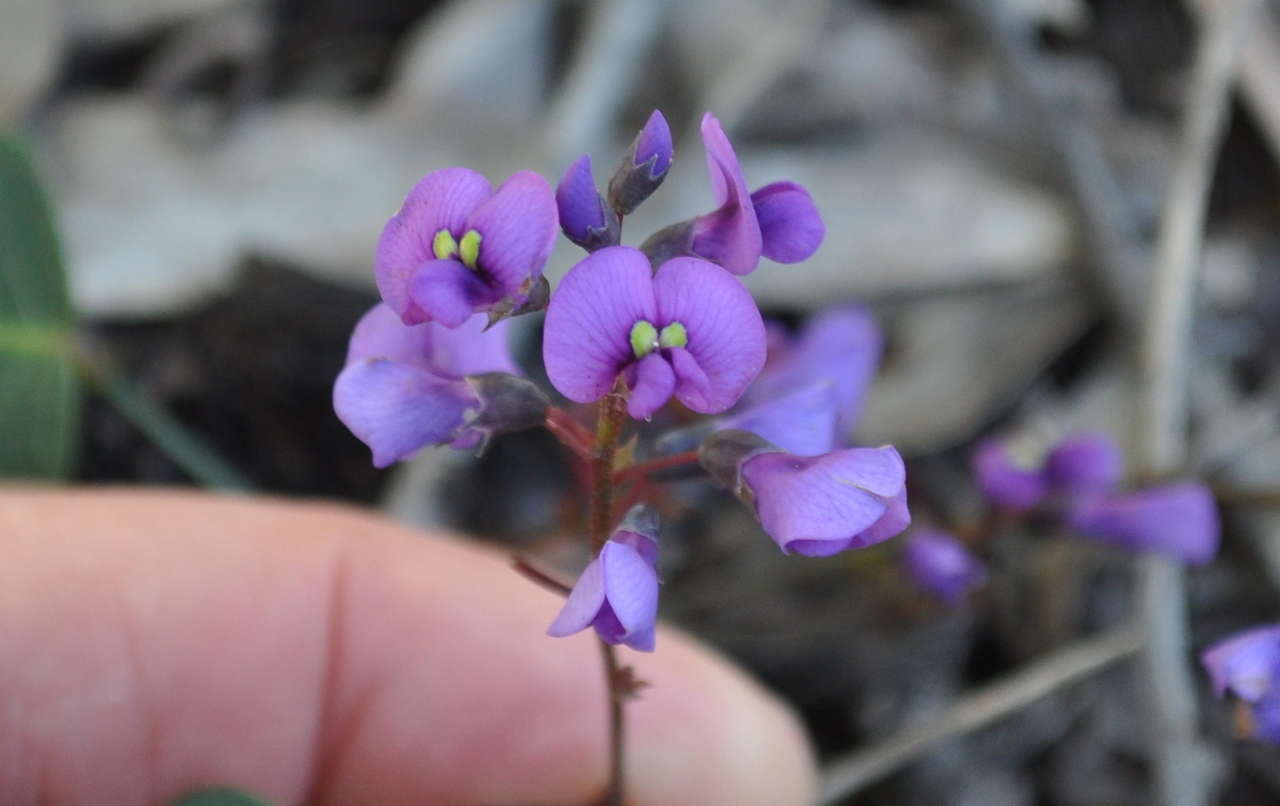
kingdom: Plantae
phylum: Tracheophyta
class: Magnoliopsida
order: Fabales
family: Fabaceae
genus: Hardenbergia
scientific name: Hardenbergia violacea
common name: Coral-pea
